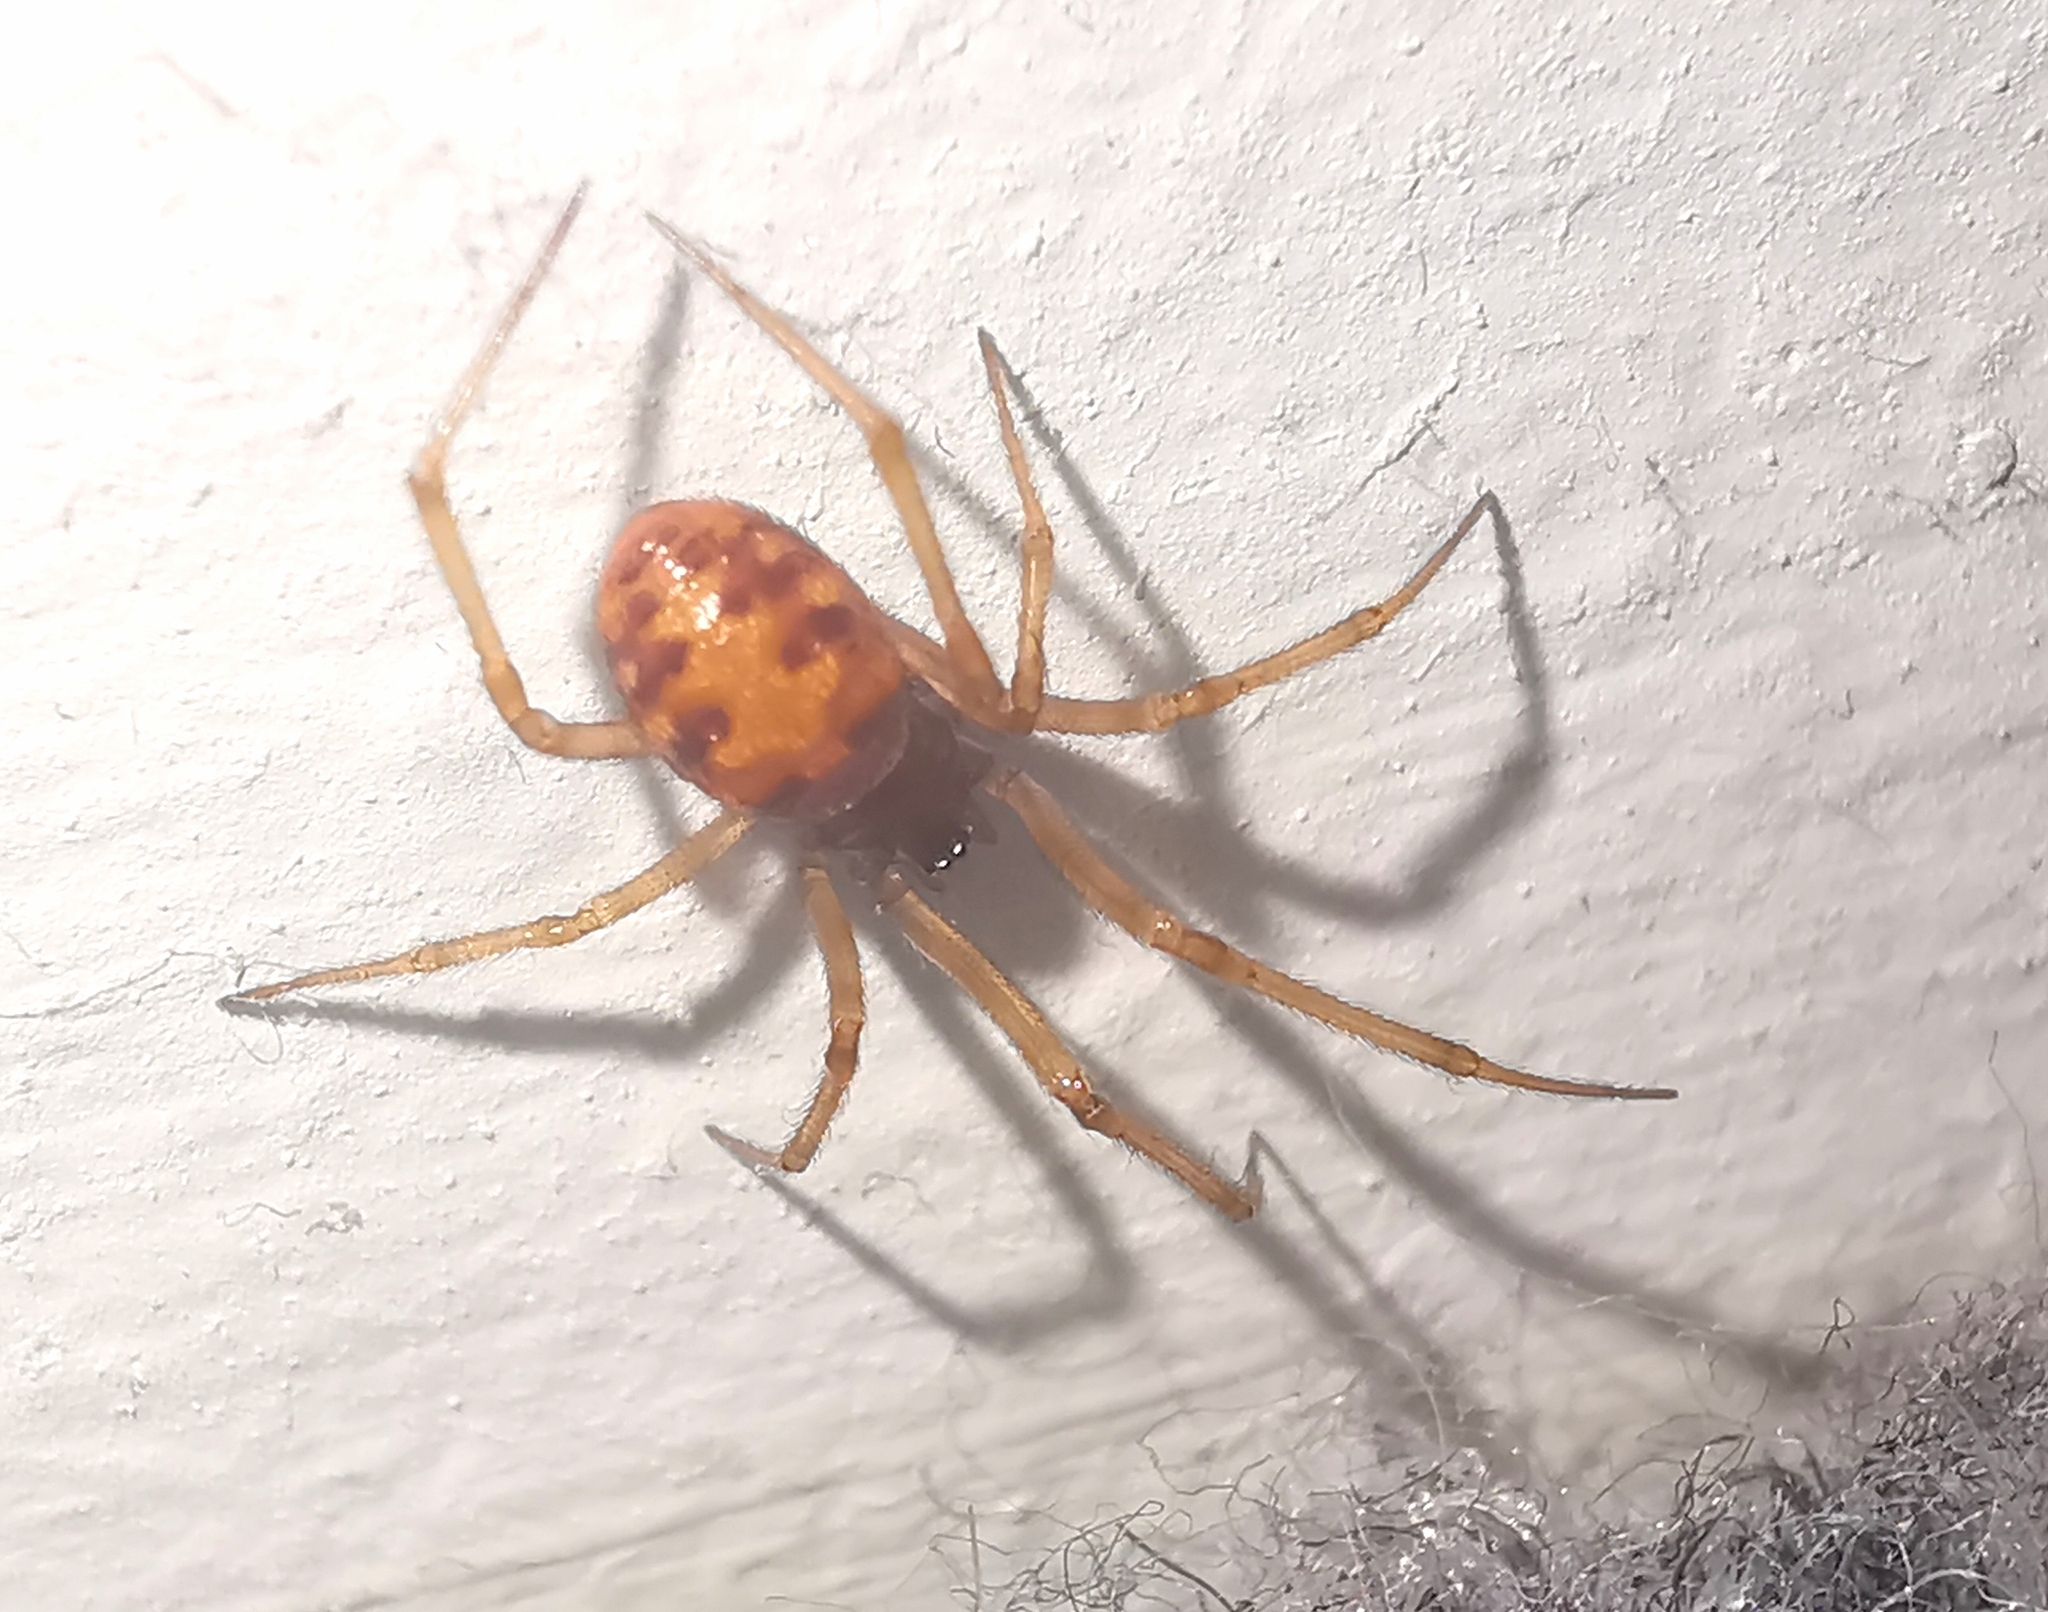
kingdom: Animalia
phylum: Arthropoda
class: Arachnida
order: Araneae
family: Theridiidae
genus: Steatoda
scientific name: Steatoda triangulosa
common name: Triangulate bud spider
